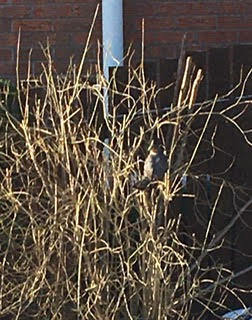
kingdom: Animalia
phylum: Chordata
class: Aves
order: Accipitriformes
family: Accipitridae
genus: Accipiter
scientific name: Accipiter nisus
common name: Eurasian sparrowhawk
